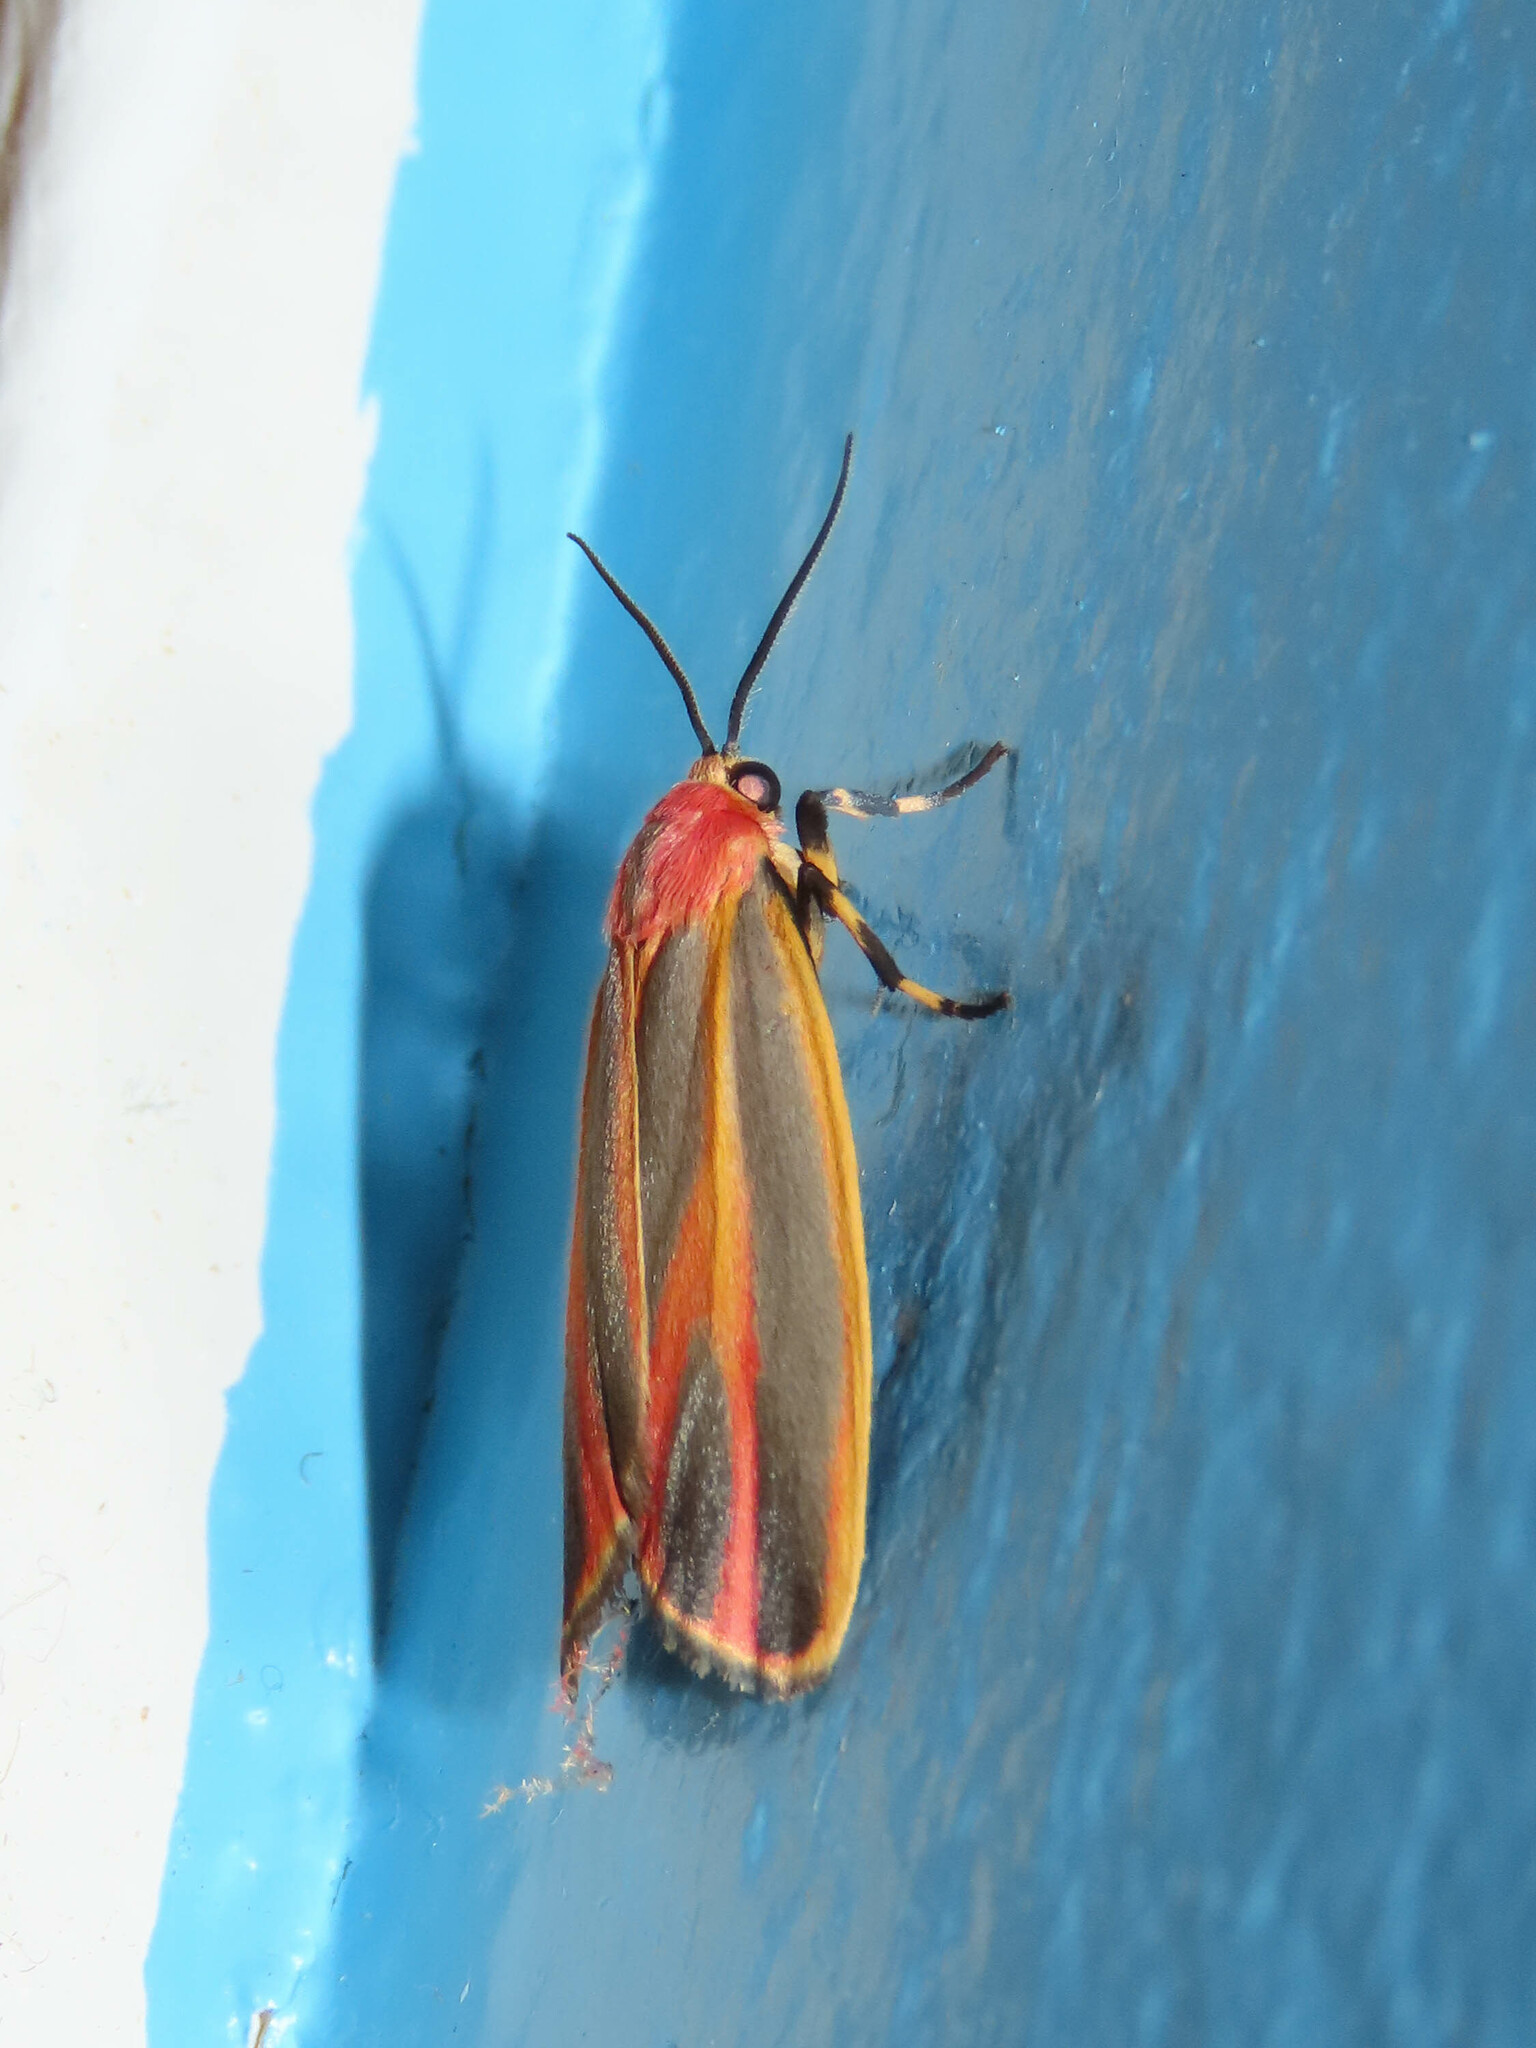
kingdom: Animalia
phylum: Arthropoda
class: Insecta
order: Lepidoptera
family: Erebidae
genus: Hypoprepia
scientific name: Hypoprepia fucosa
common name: Painted lichen moth
